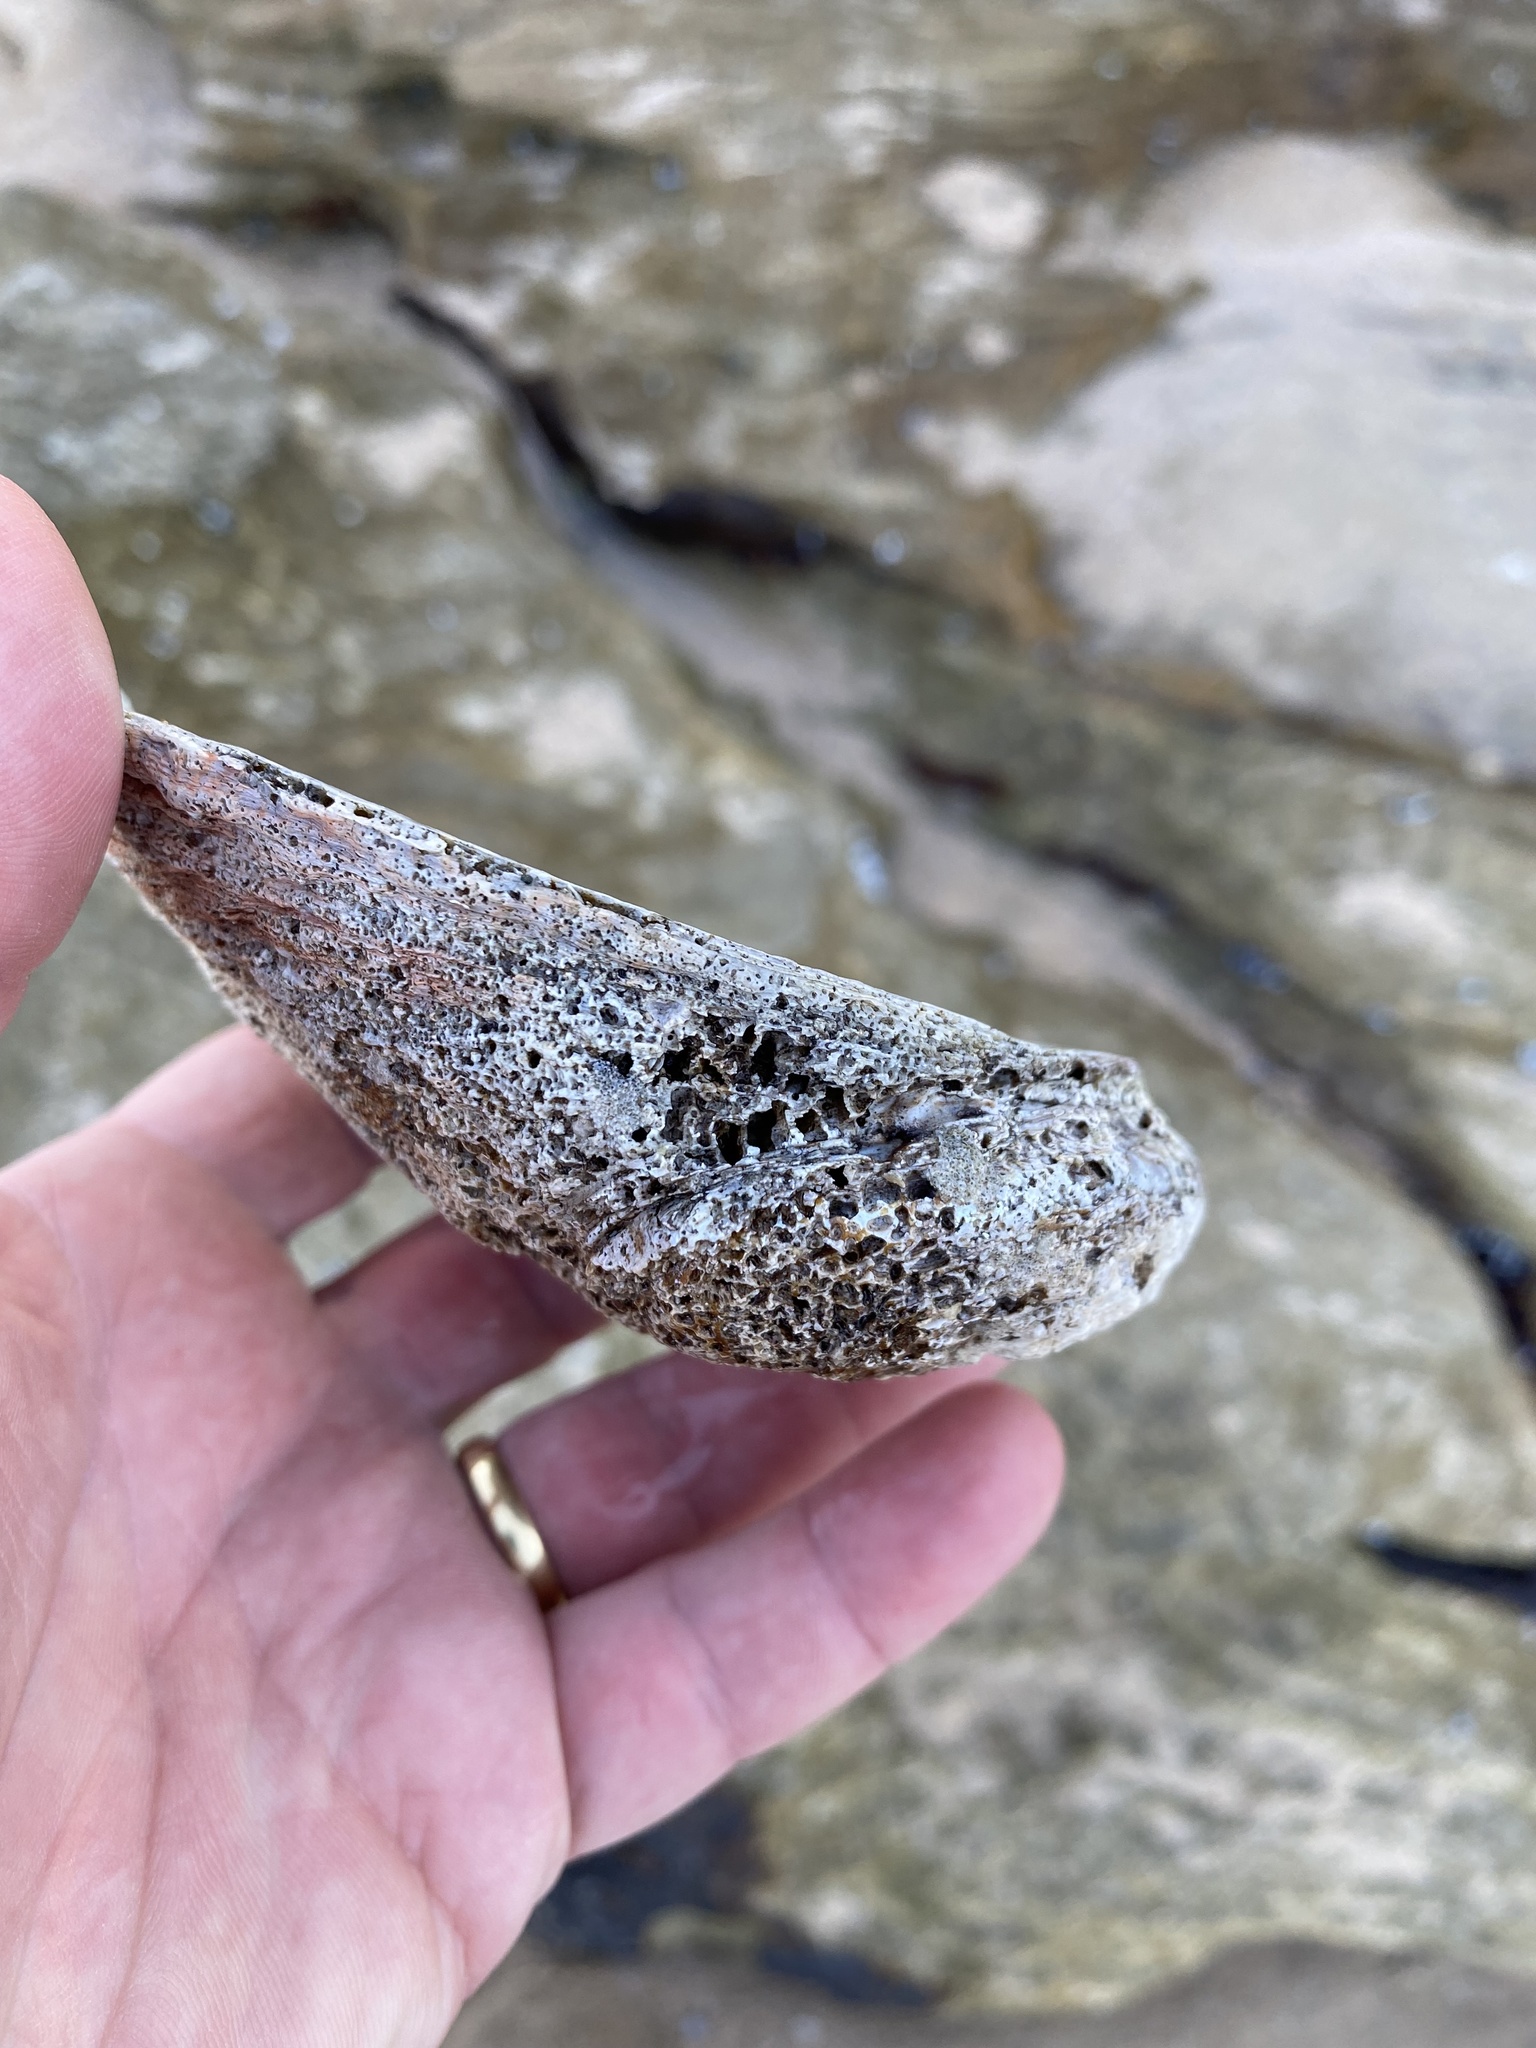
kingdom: Animalia
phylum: Mollusca
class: Gastropoda
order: Lepetellida
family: Haliotidae
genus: Haliotis
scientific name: Haliotis rubra
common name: Blacklip abalone
